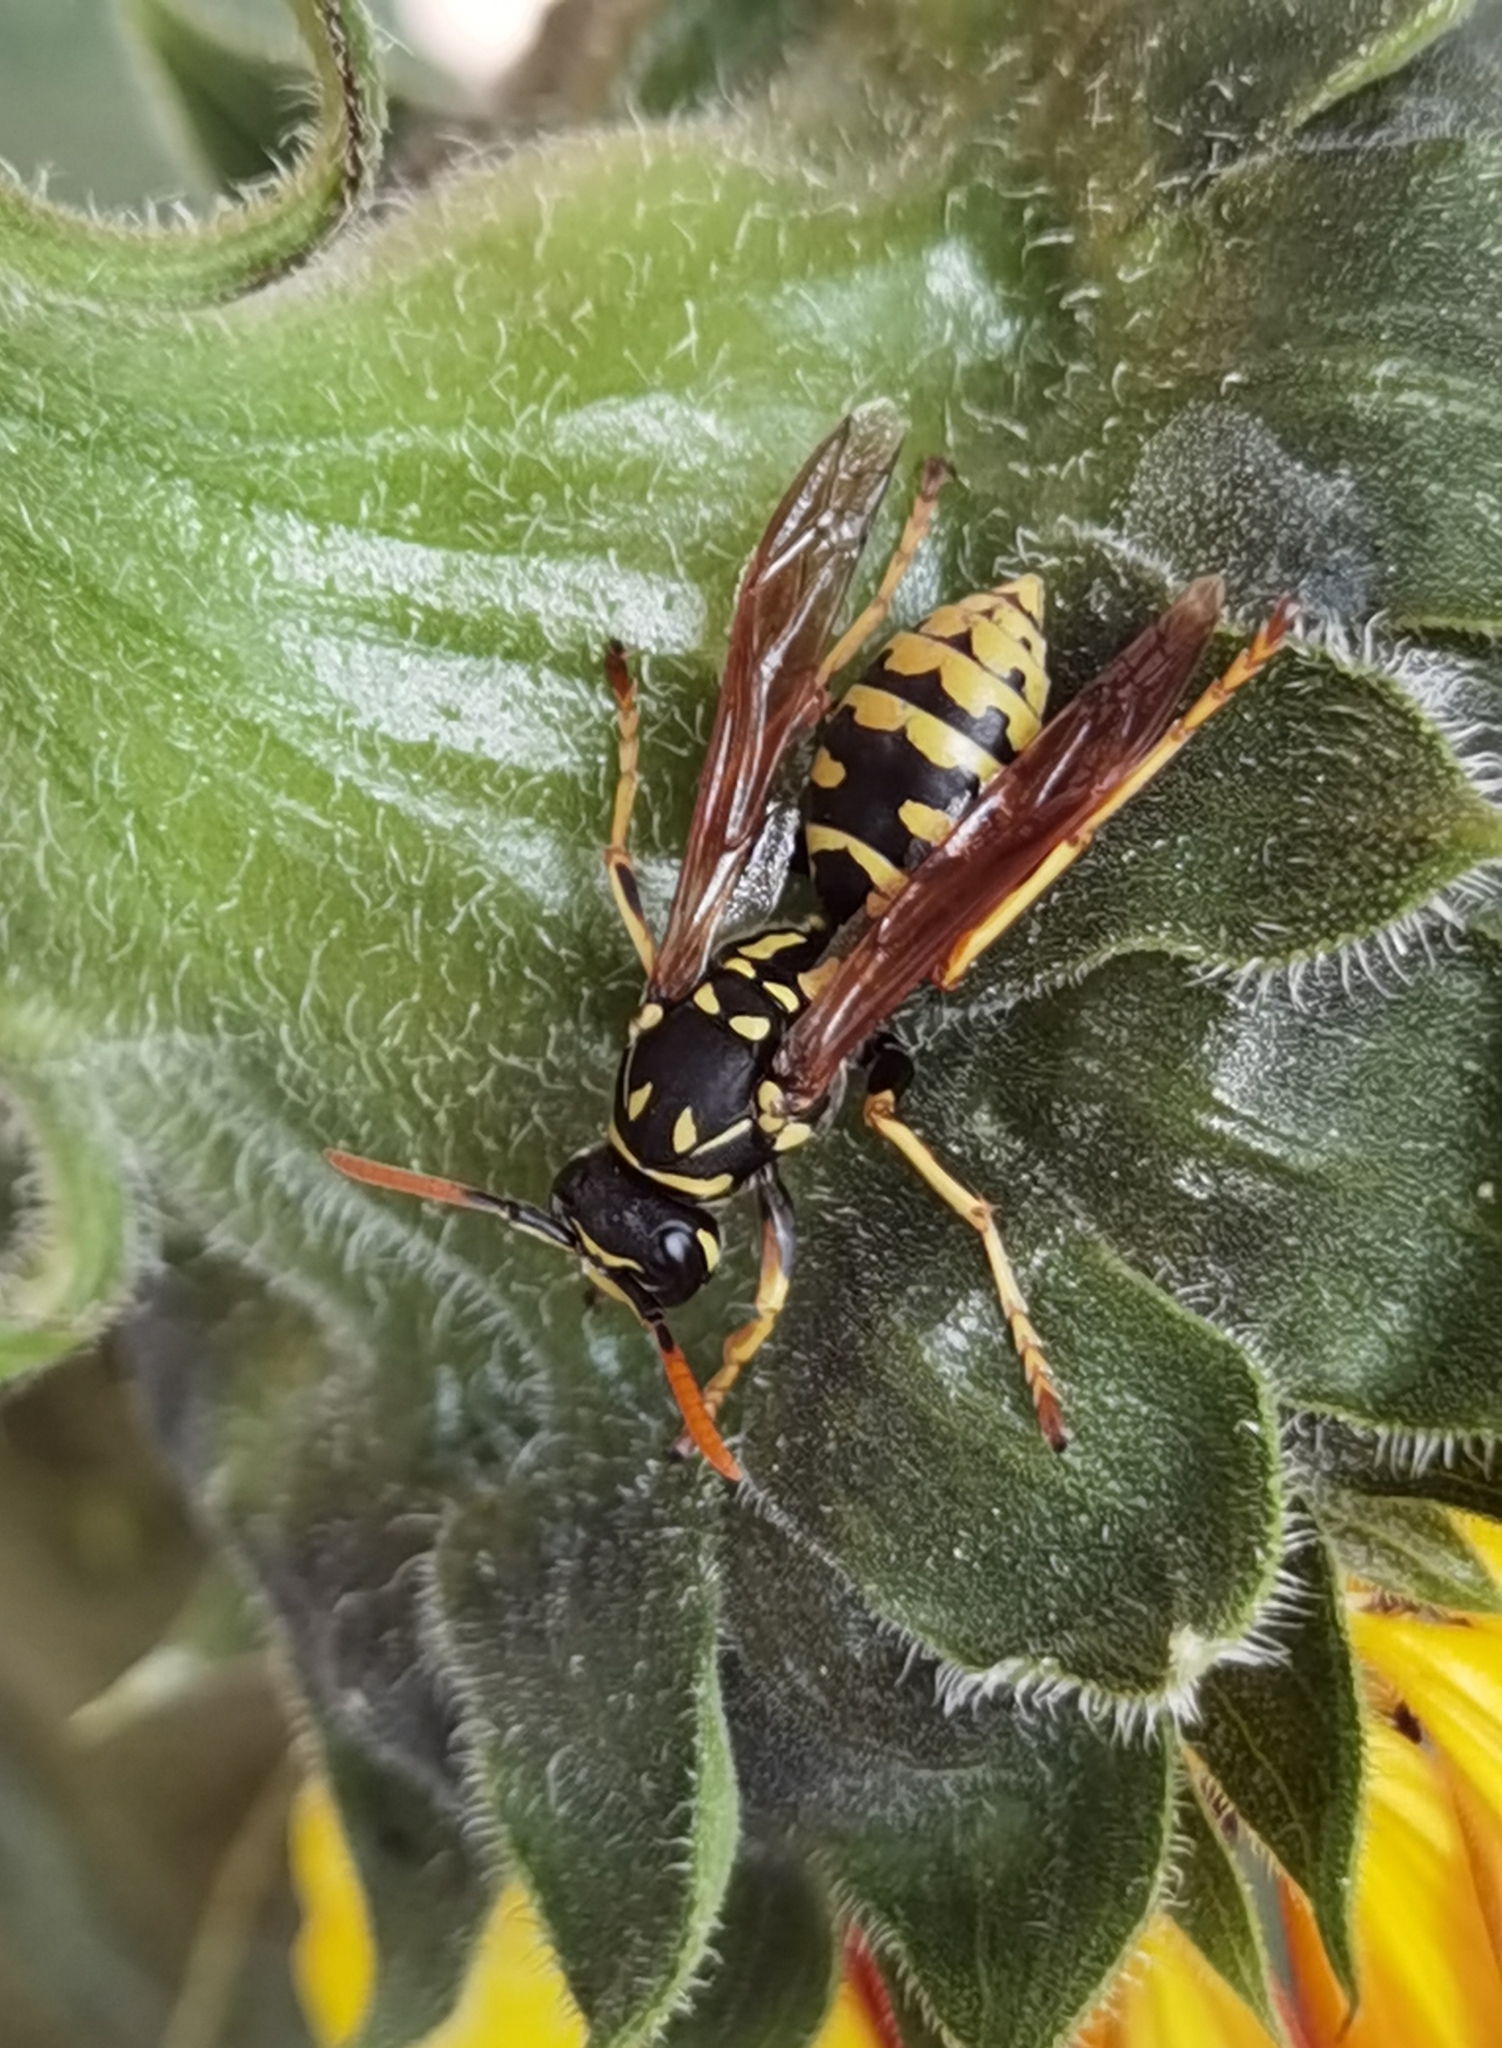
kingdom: Animalia
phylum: Arthropoda
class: Insecta
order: Hymenoptera
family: Eumenidae
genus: Polistes
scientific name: Polistes dominula
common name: Paper wasp
